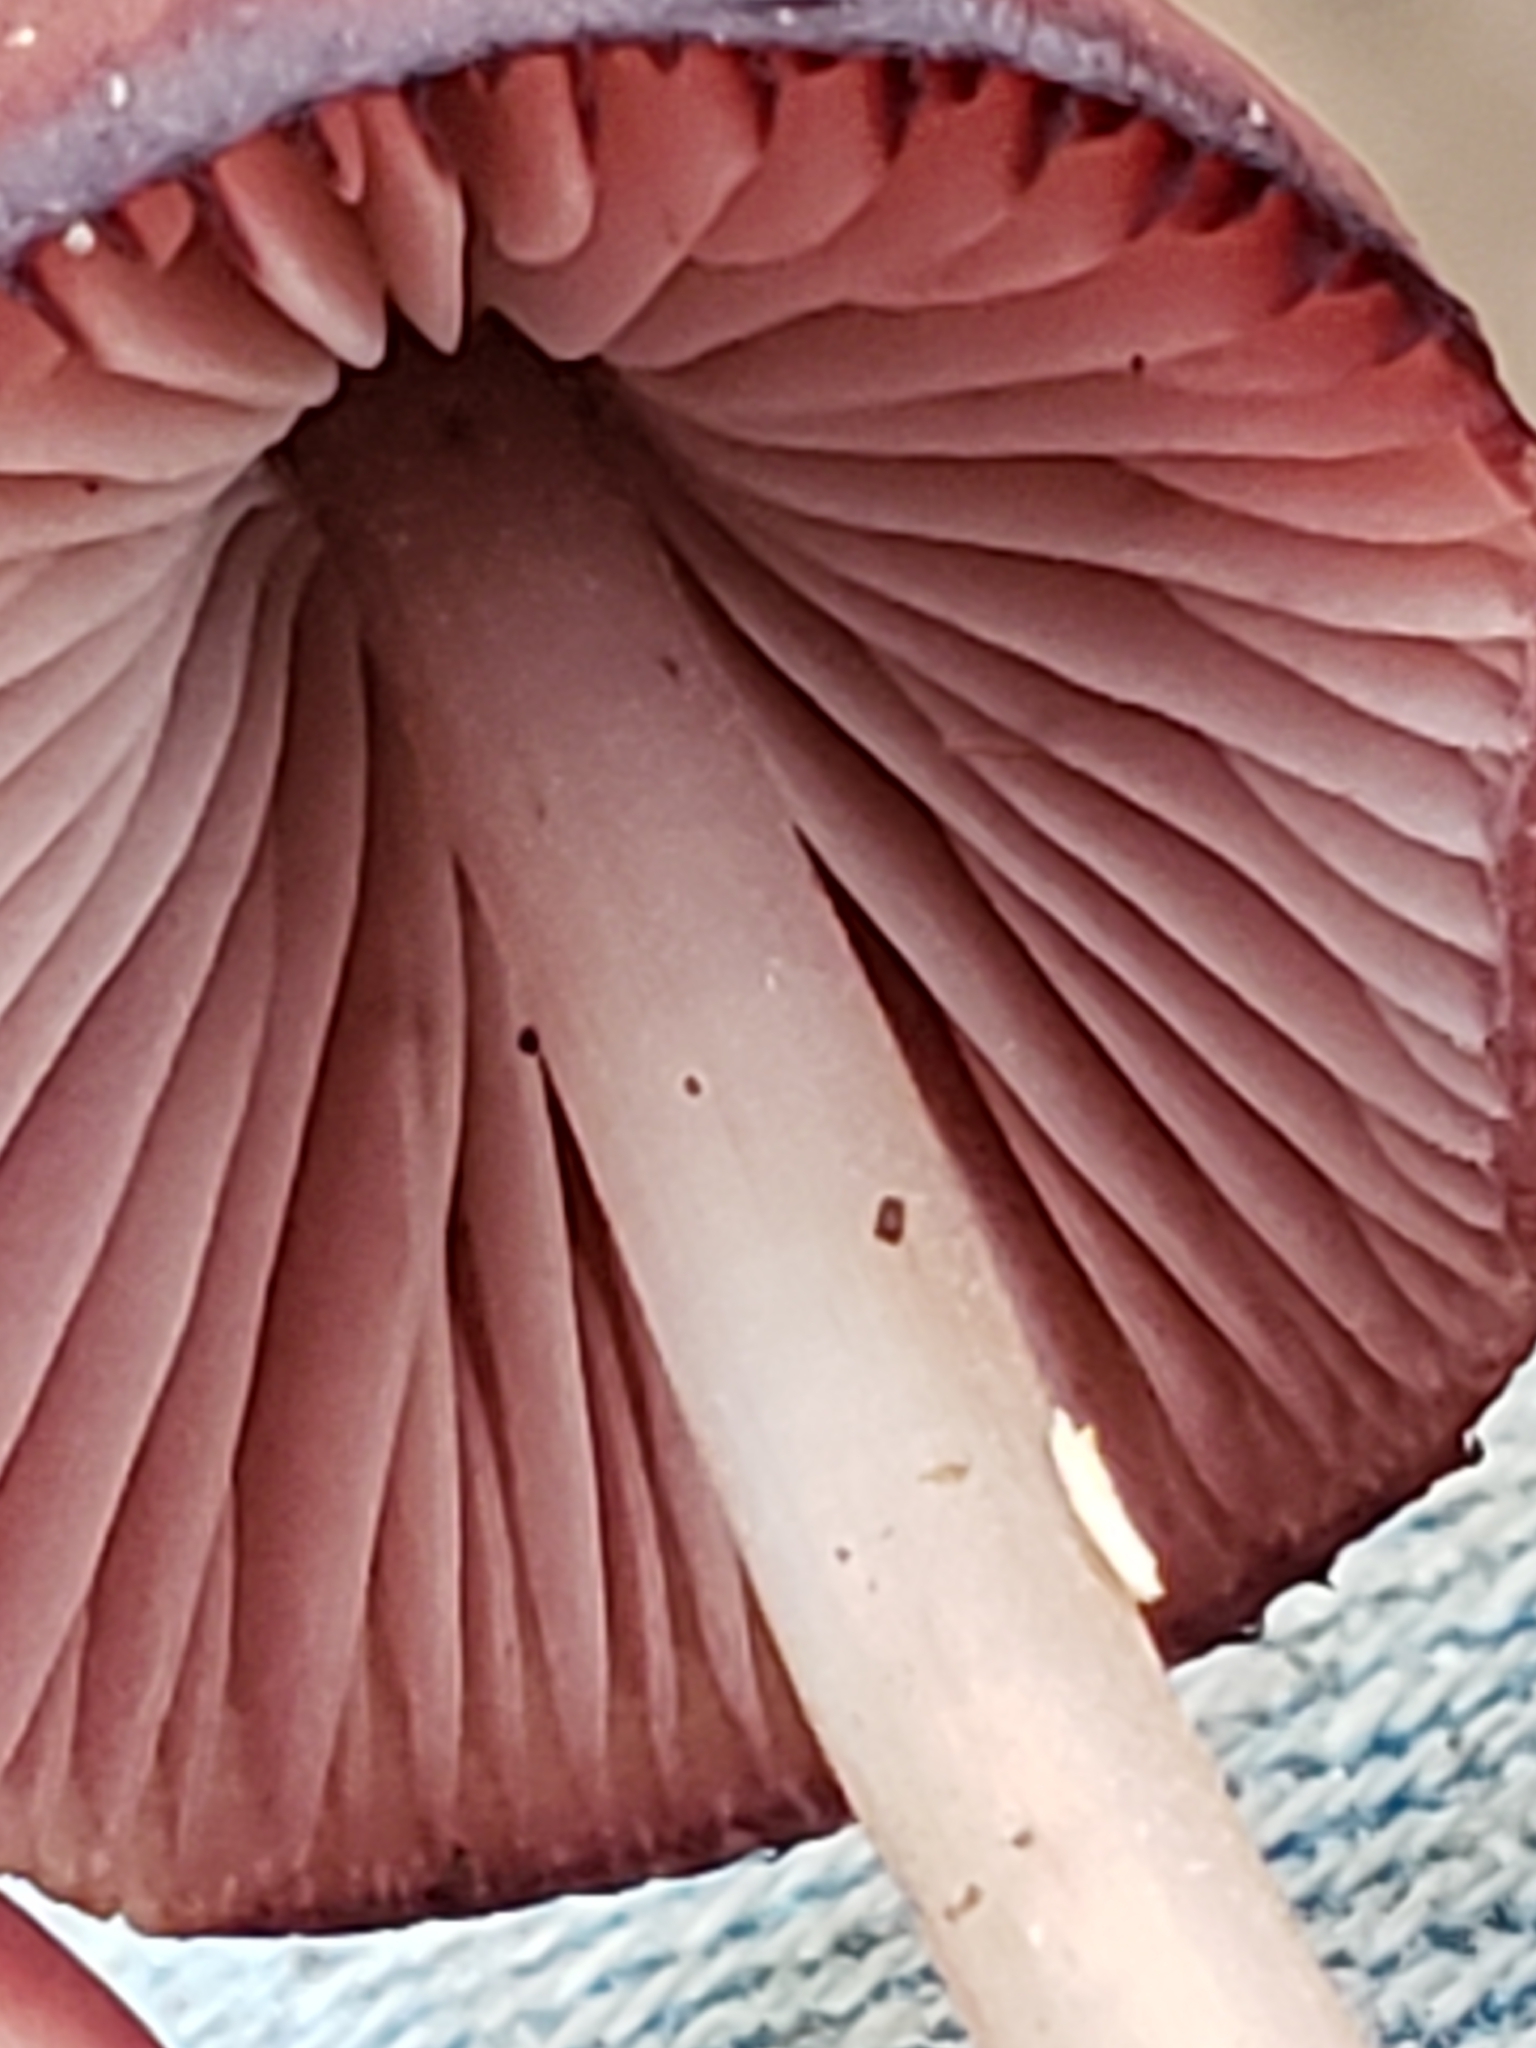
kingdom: Fungi
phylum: Basidiomycota
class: Agaricomycetes
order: Agaricales
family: Mycenaceae
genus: Mycena
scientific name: Mycena haematopus
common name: Burgundydrop bonnet
